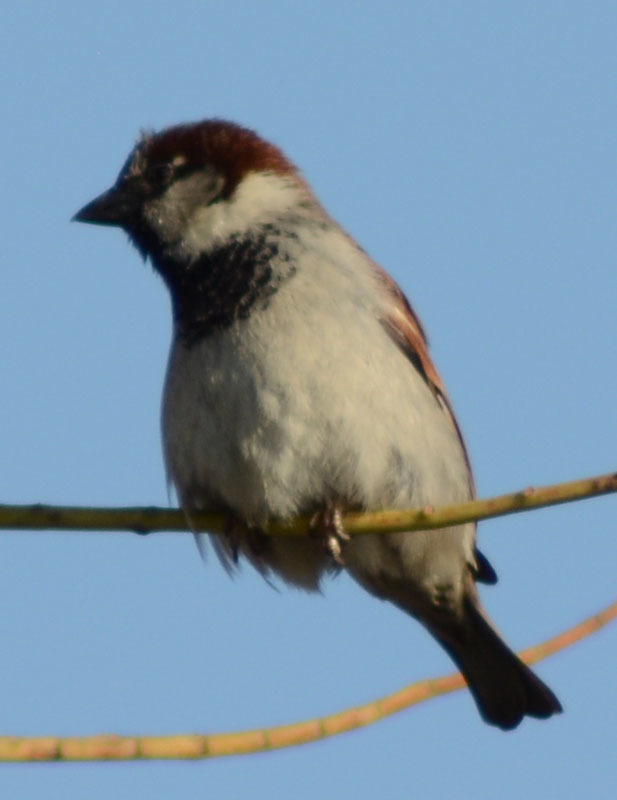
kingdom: Animalia
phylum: Chordata
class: Aves
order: Passeriformes
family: Passeridae
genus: Passer
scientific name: Passer domesticus
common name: House sparrow
